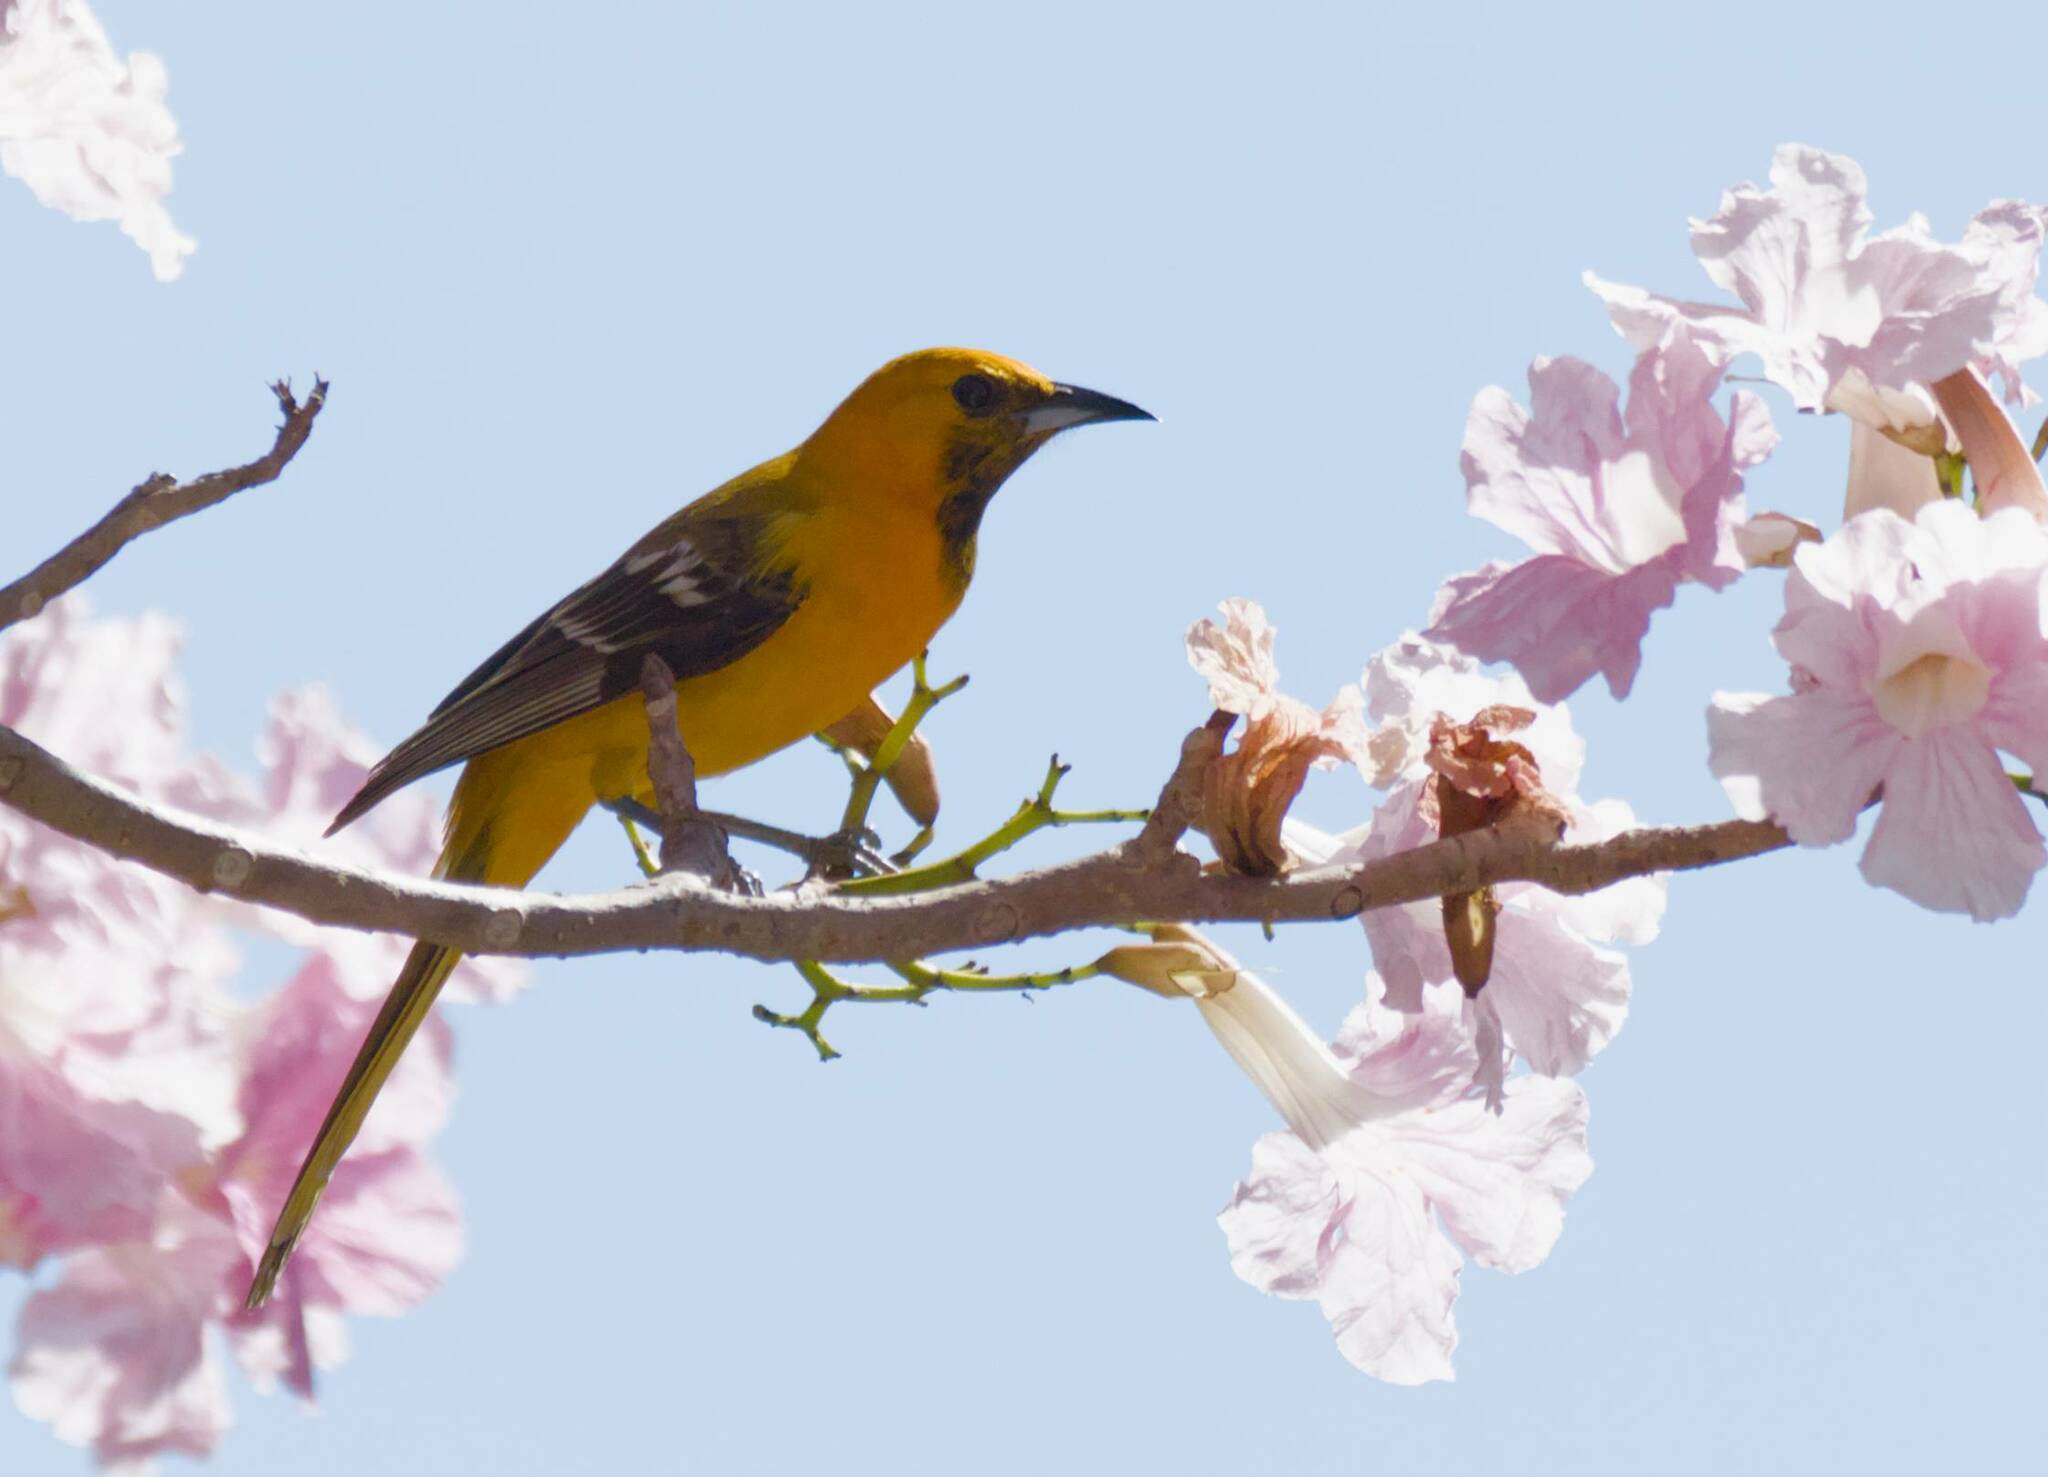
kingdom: Animalia
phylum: Chordata
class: Aves
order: Passeriformes
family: Icteridae
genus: Icterus
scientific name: Icterus cucullatus
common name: Hooded oriole
